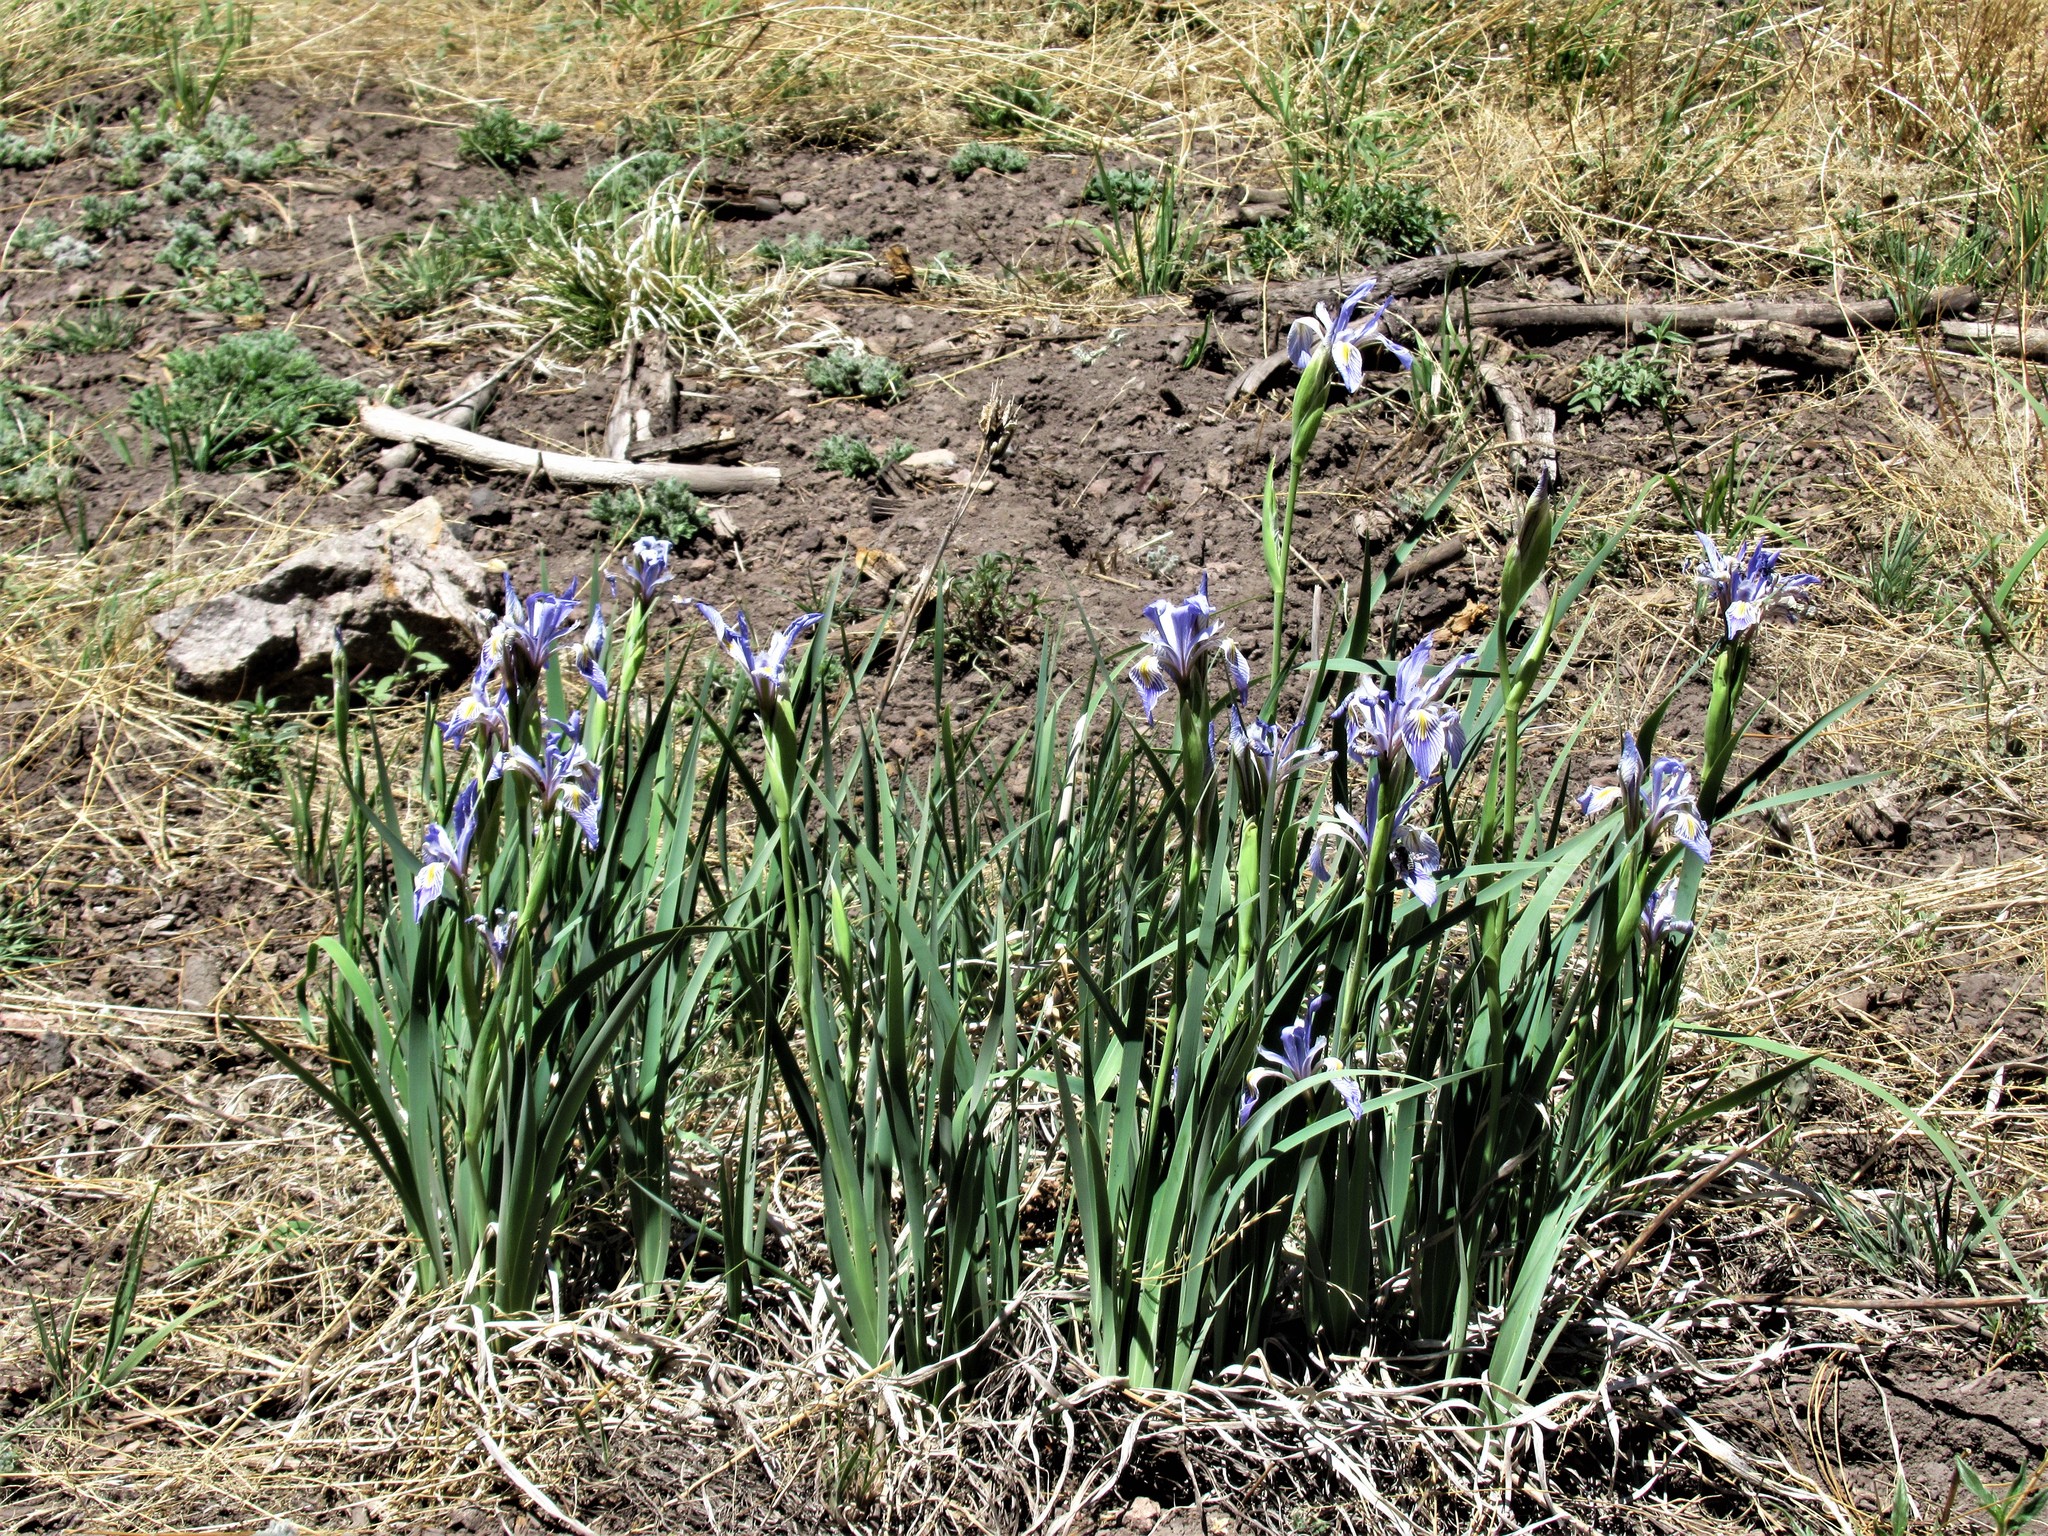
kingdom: Plantae
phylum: Tracheophyta
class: Liliopsida
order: Asparagales
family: Iridaceae
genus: Iris
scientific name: Iris missouriensis
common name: Rocky mountain iris
